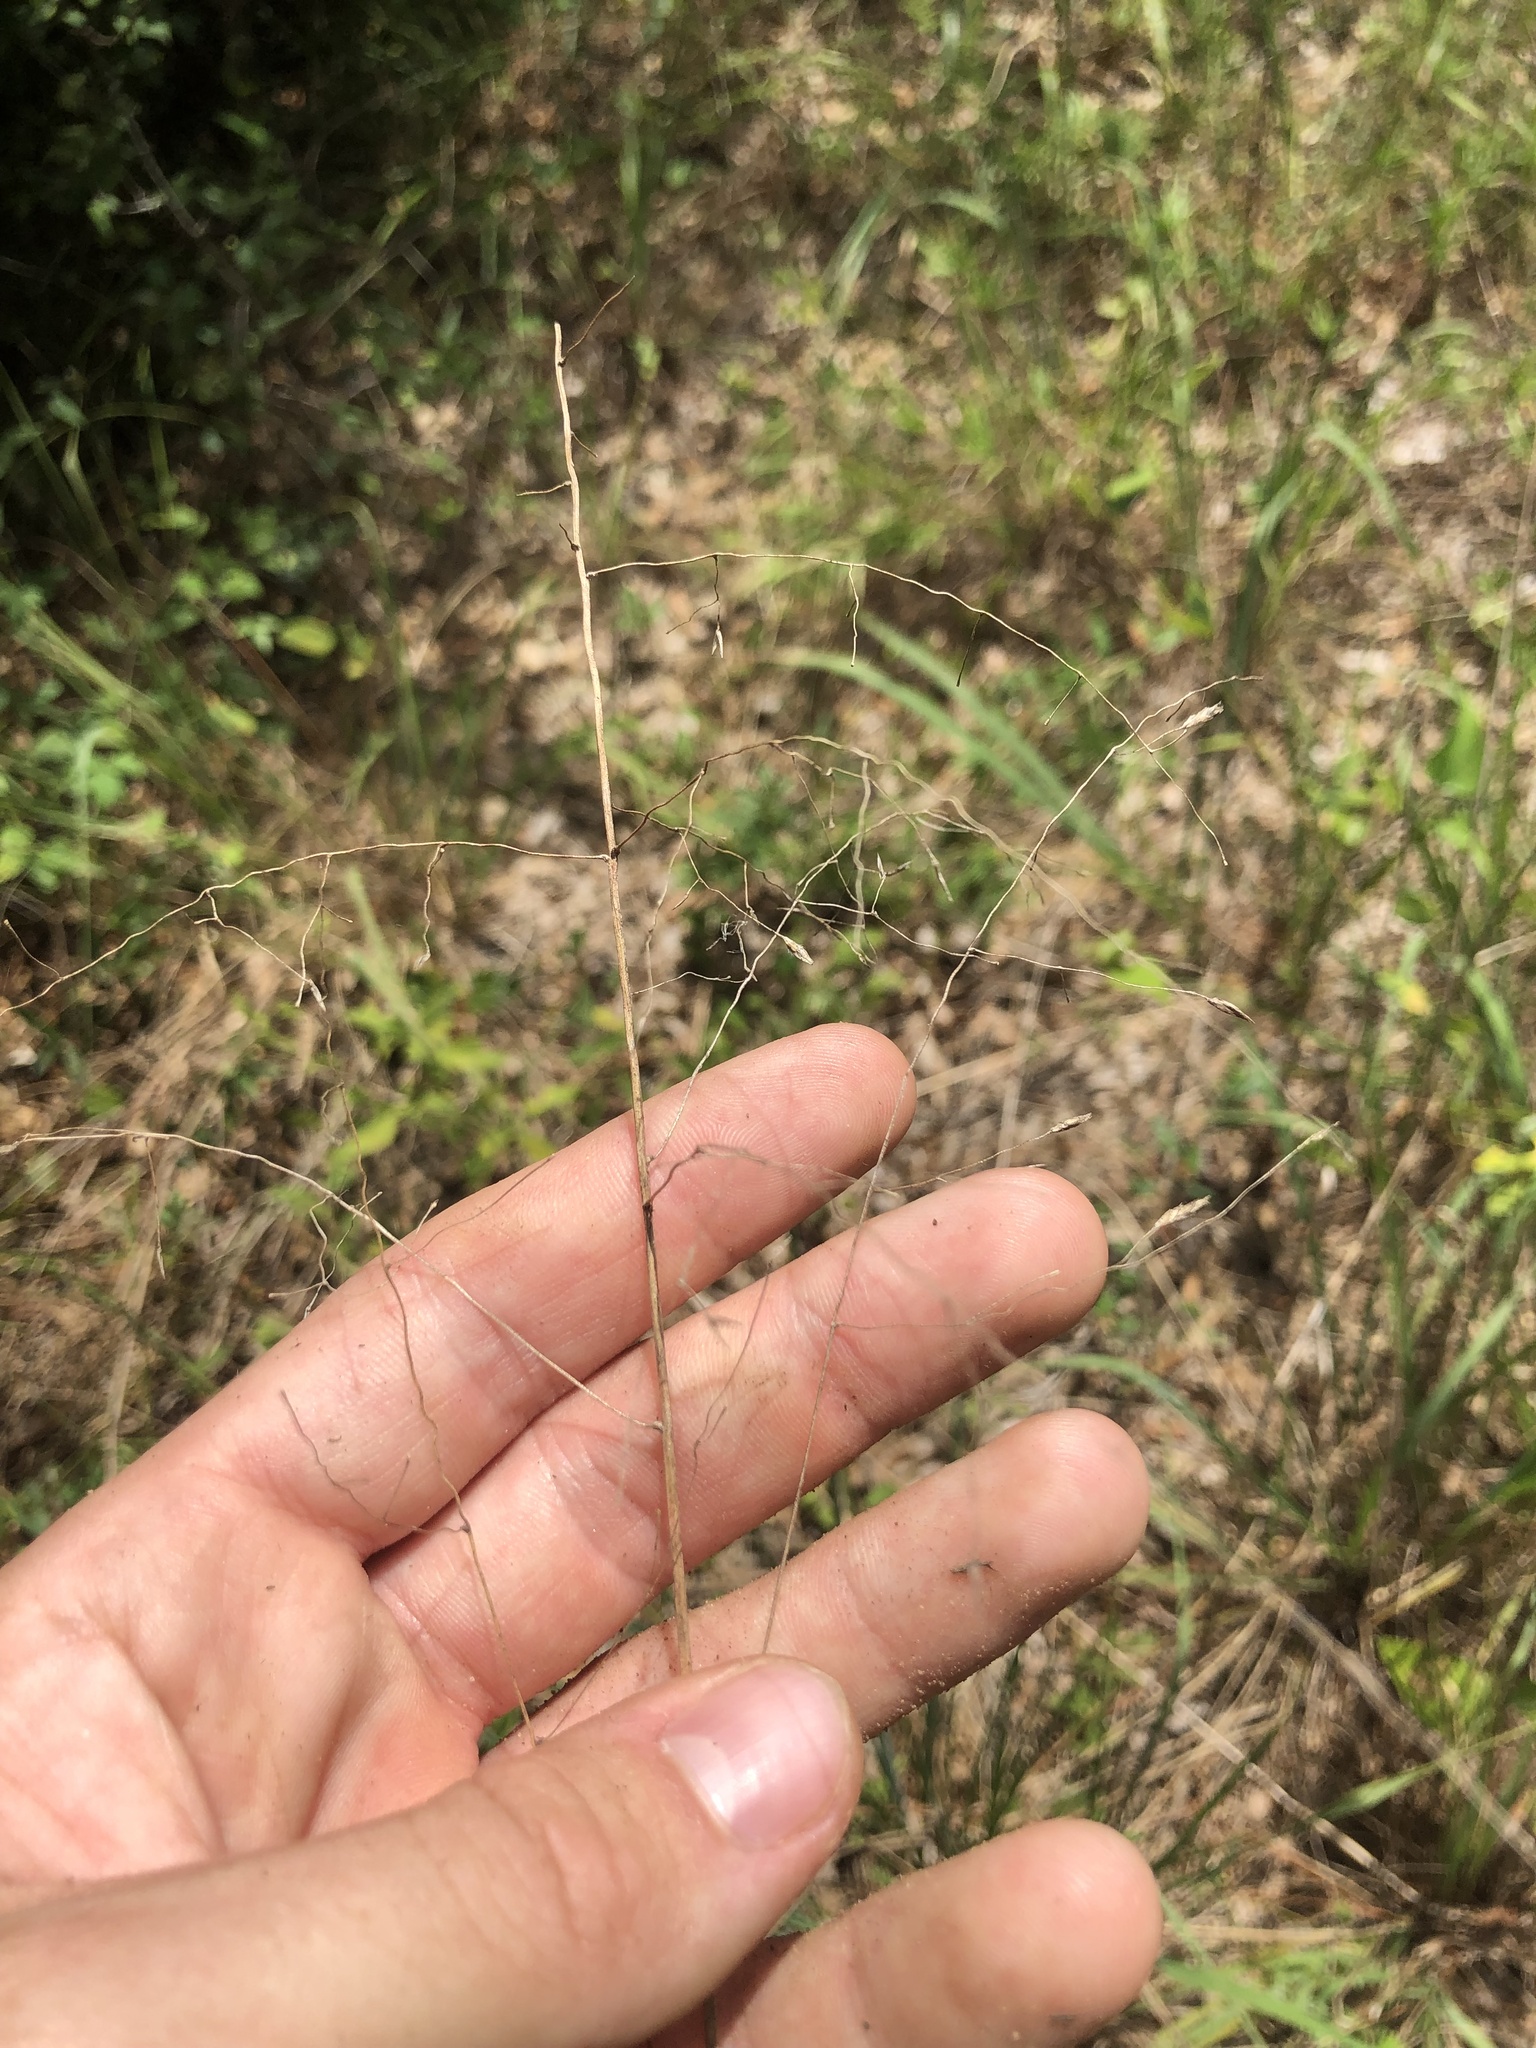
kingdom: Plantae
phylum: Tracheophyta
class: Liliopsida
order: Poales
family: Poaceae
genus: Tridens
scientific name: Tridens chapmanii
